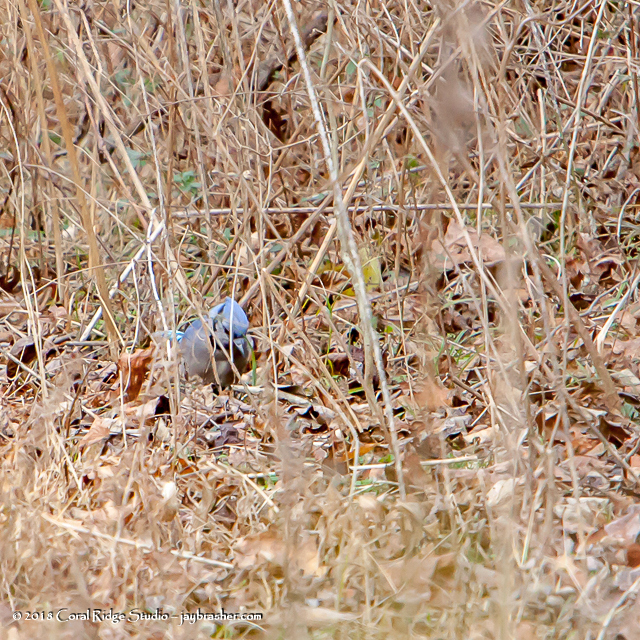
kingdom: Animalia
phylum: Chordata
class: Aves
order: Passeriformes
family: Corvidae
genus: Cyanocitta
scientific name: Cyanocitta cristata
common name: Blue jay
